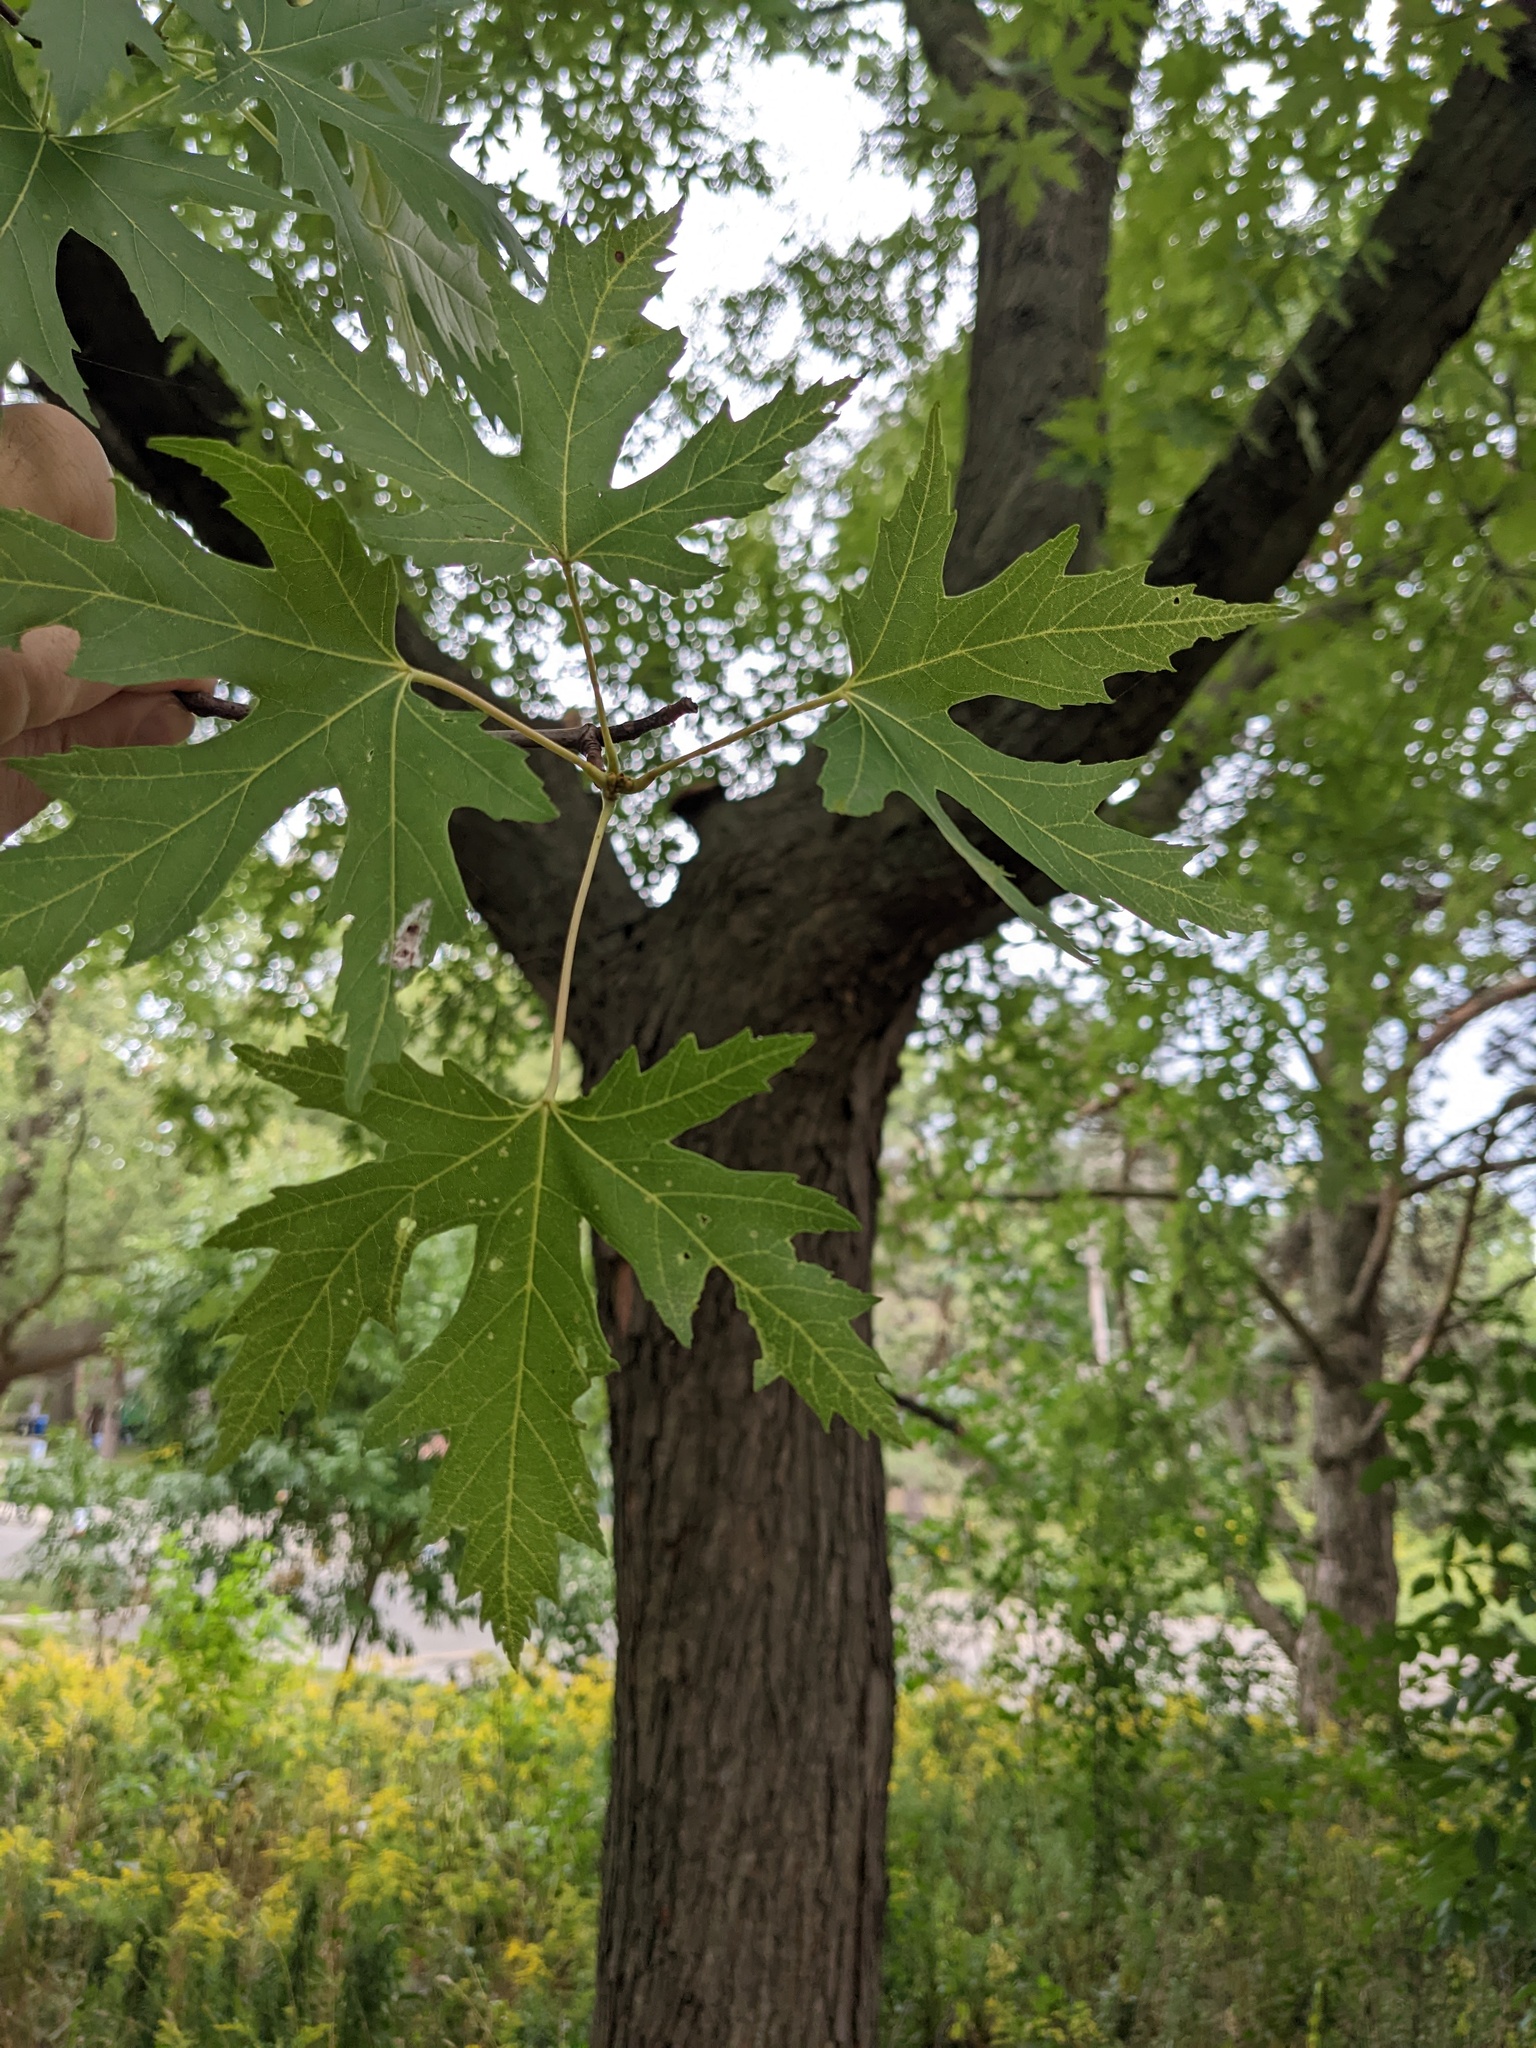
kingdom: Plantae
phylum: Tracheophyta
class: Magnoliopsida
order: Sapindales
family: Sapindaceae
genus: Acer
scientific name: Acer saccharinum
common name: Silver maple
